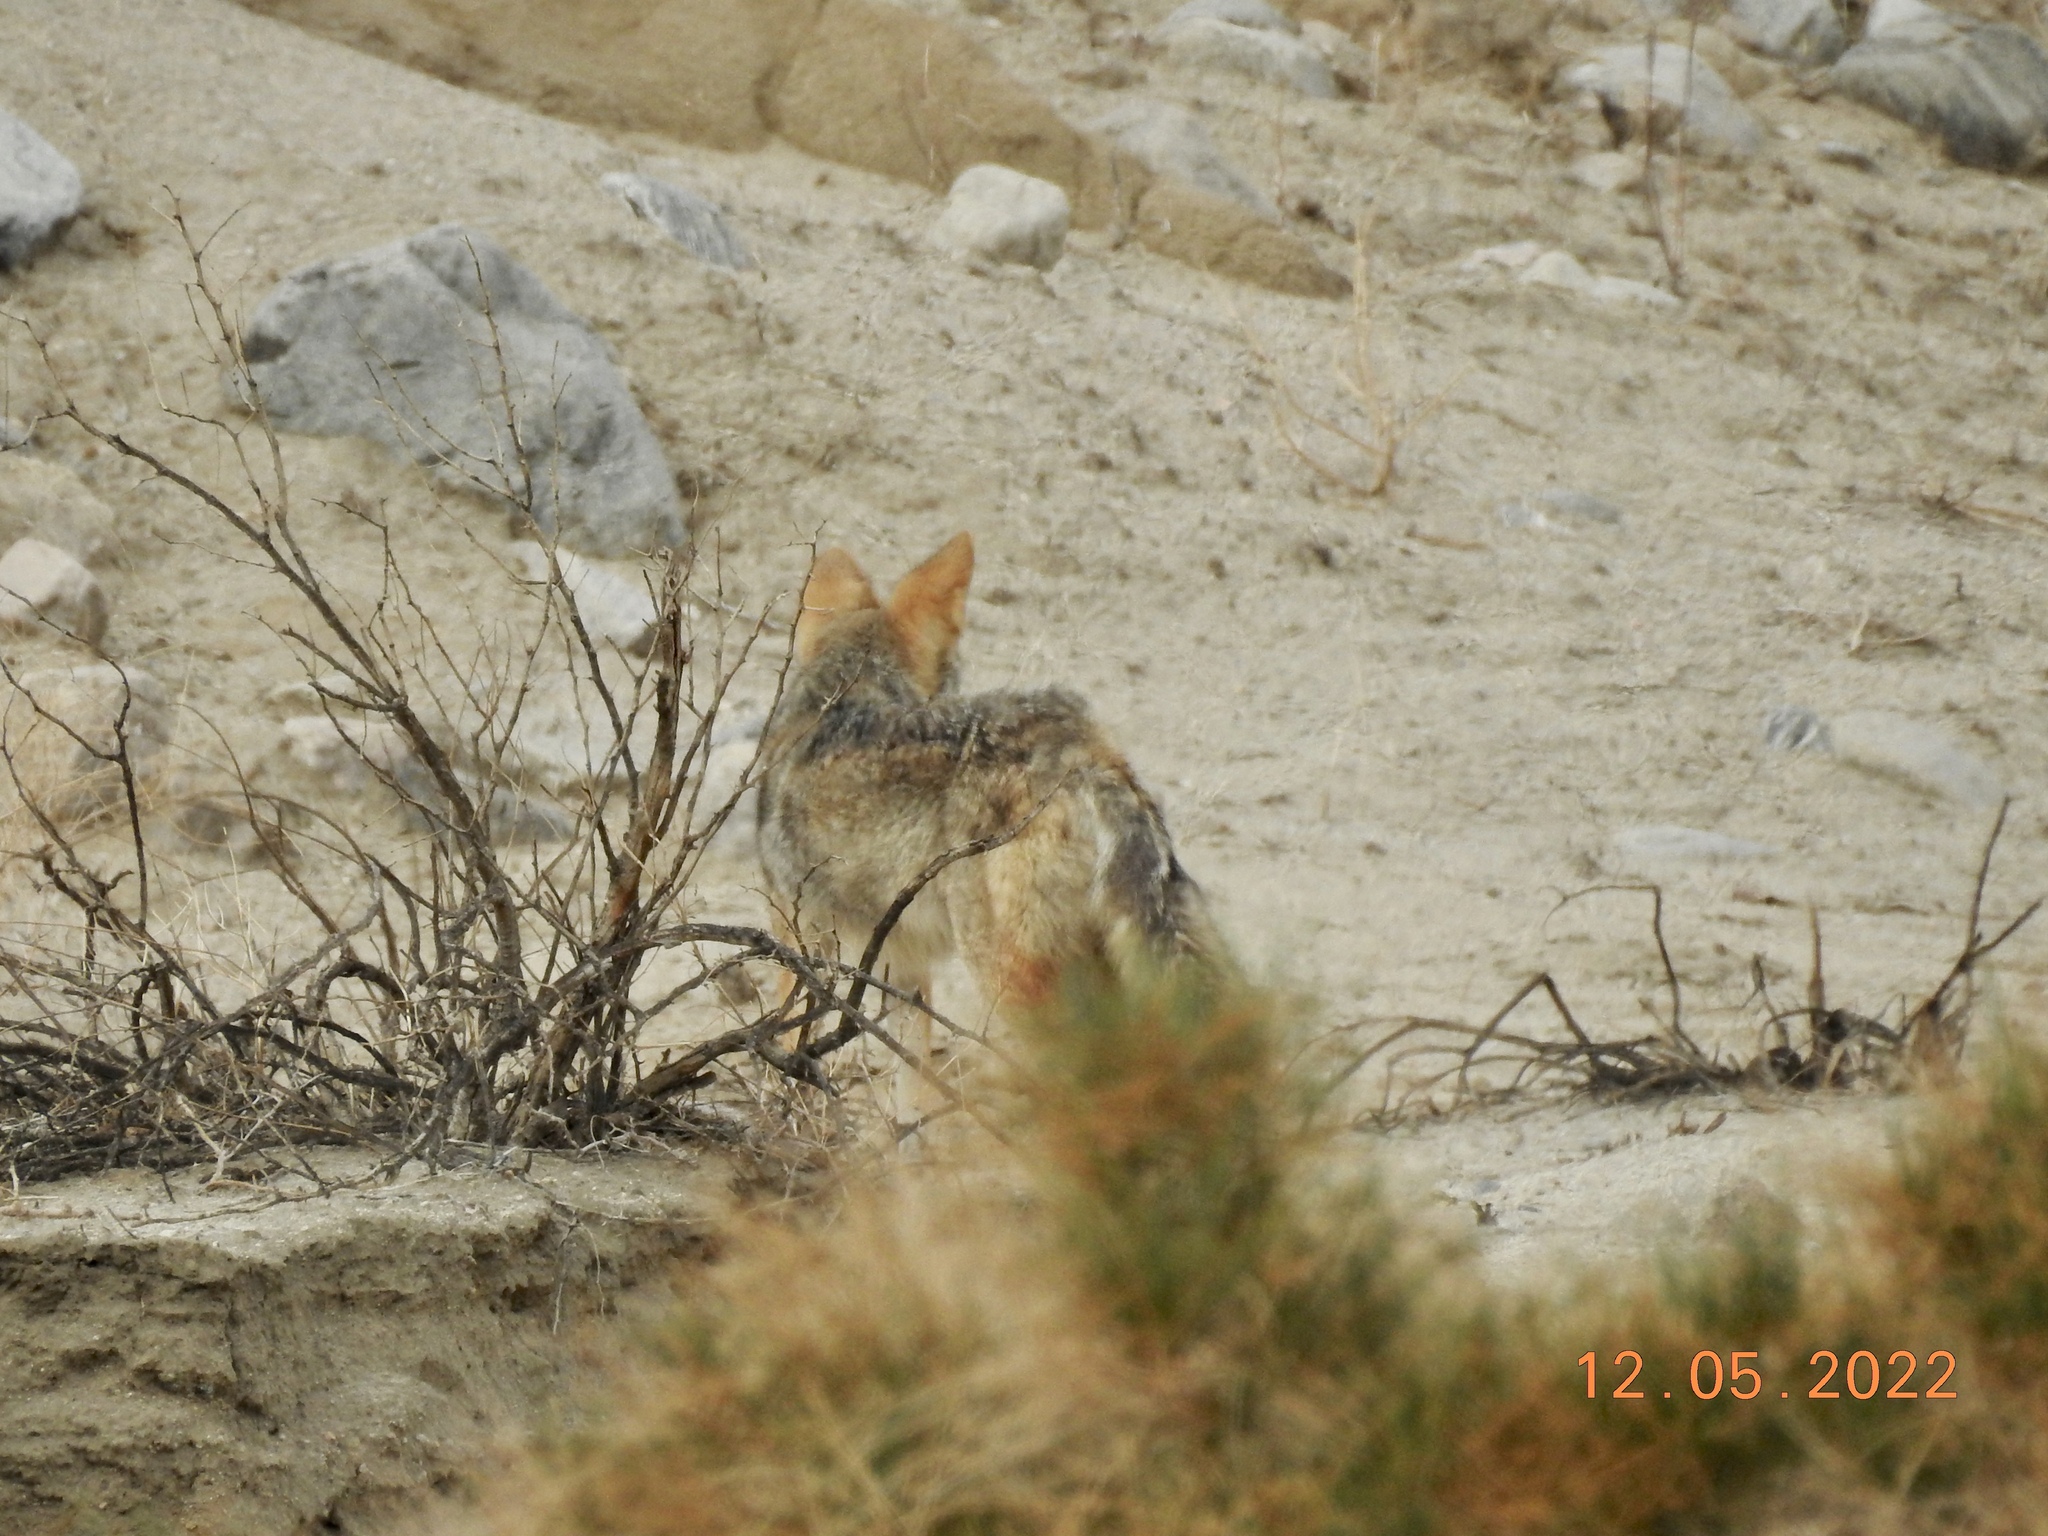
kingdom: Animalia
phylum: Chordata
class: Mammalia
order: Carnivora
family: Canidae
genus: Canis
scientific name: Canis latrans
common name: Coyote
